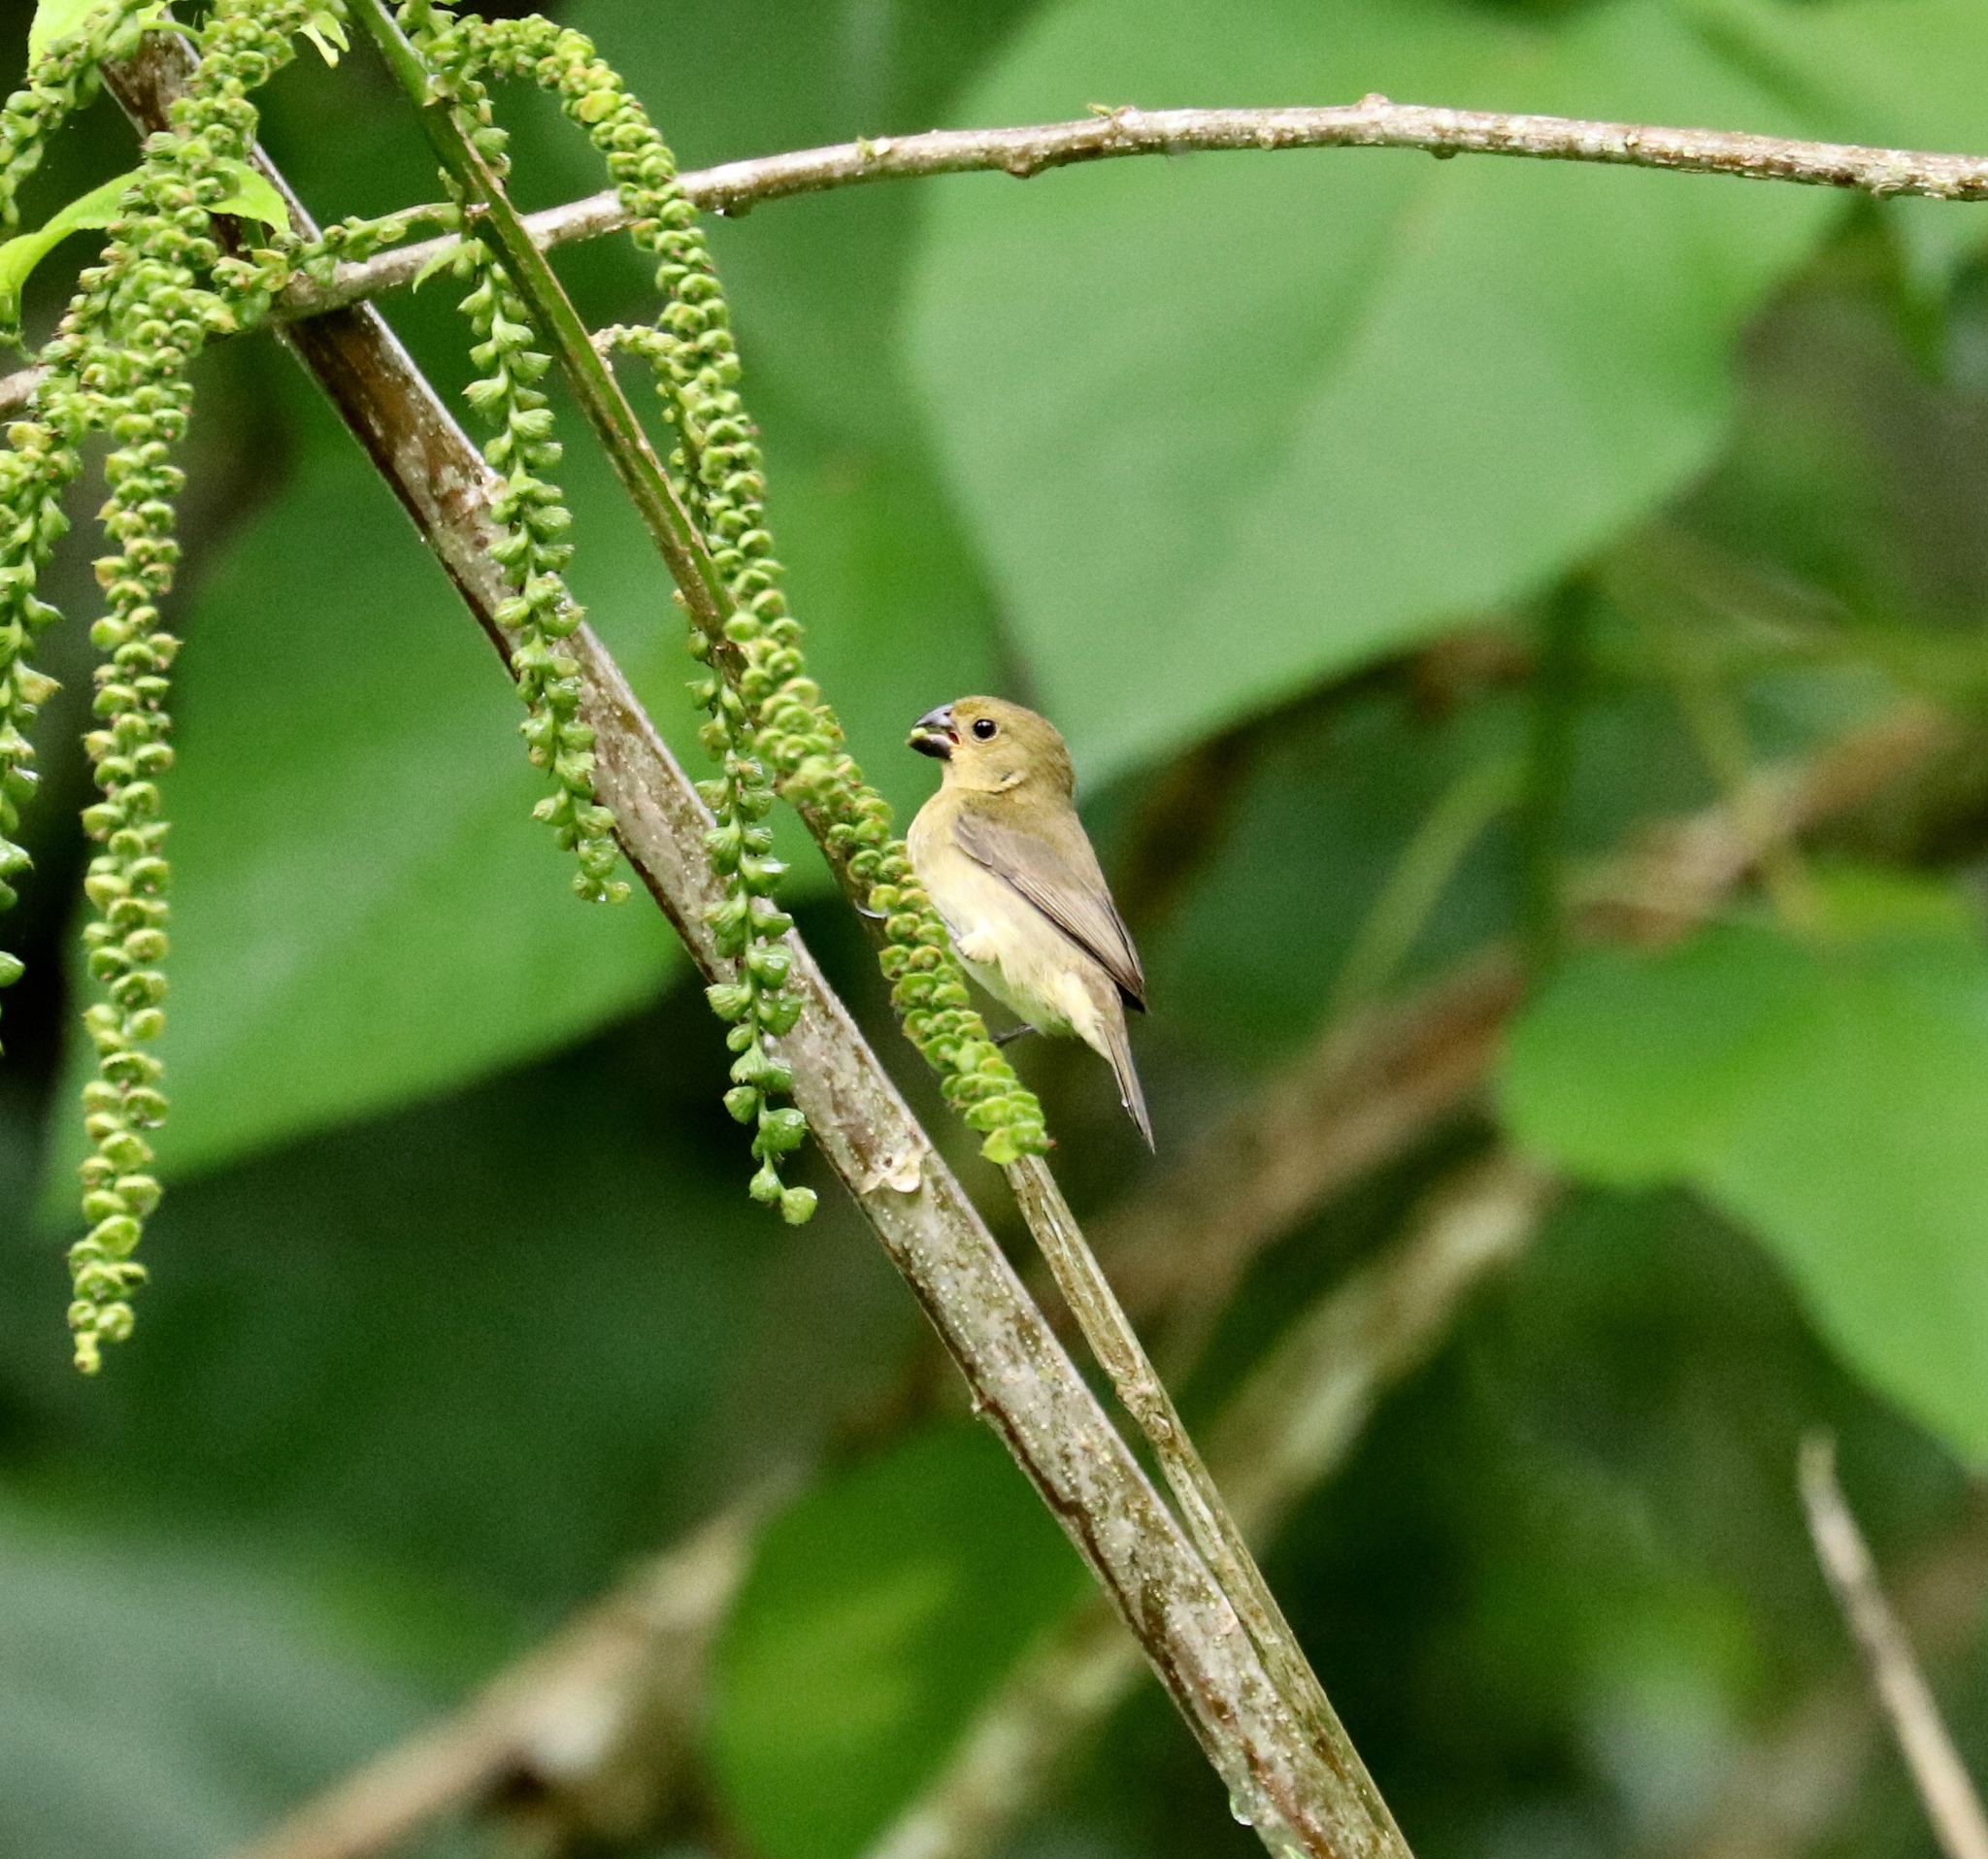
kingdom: Animalia
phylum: Chordata
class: Aves
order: Passeriformes
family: Thraupidae
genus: Sporophila
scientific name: Sporophila nigricollis
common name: Yellow-bellied seedeater
